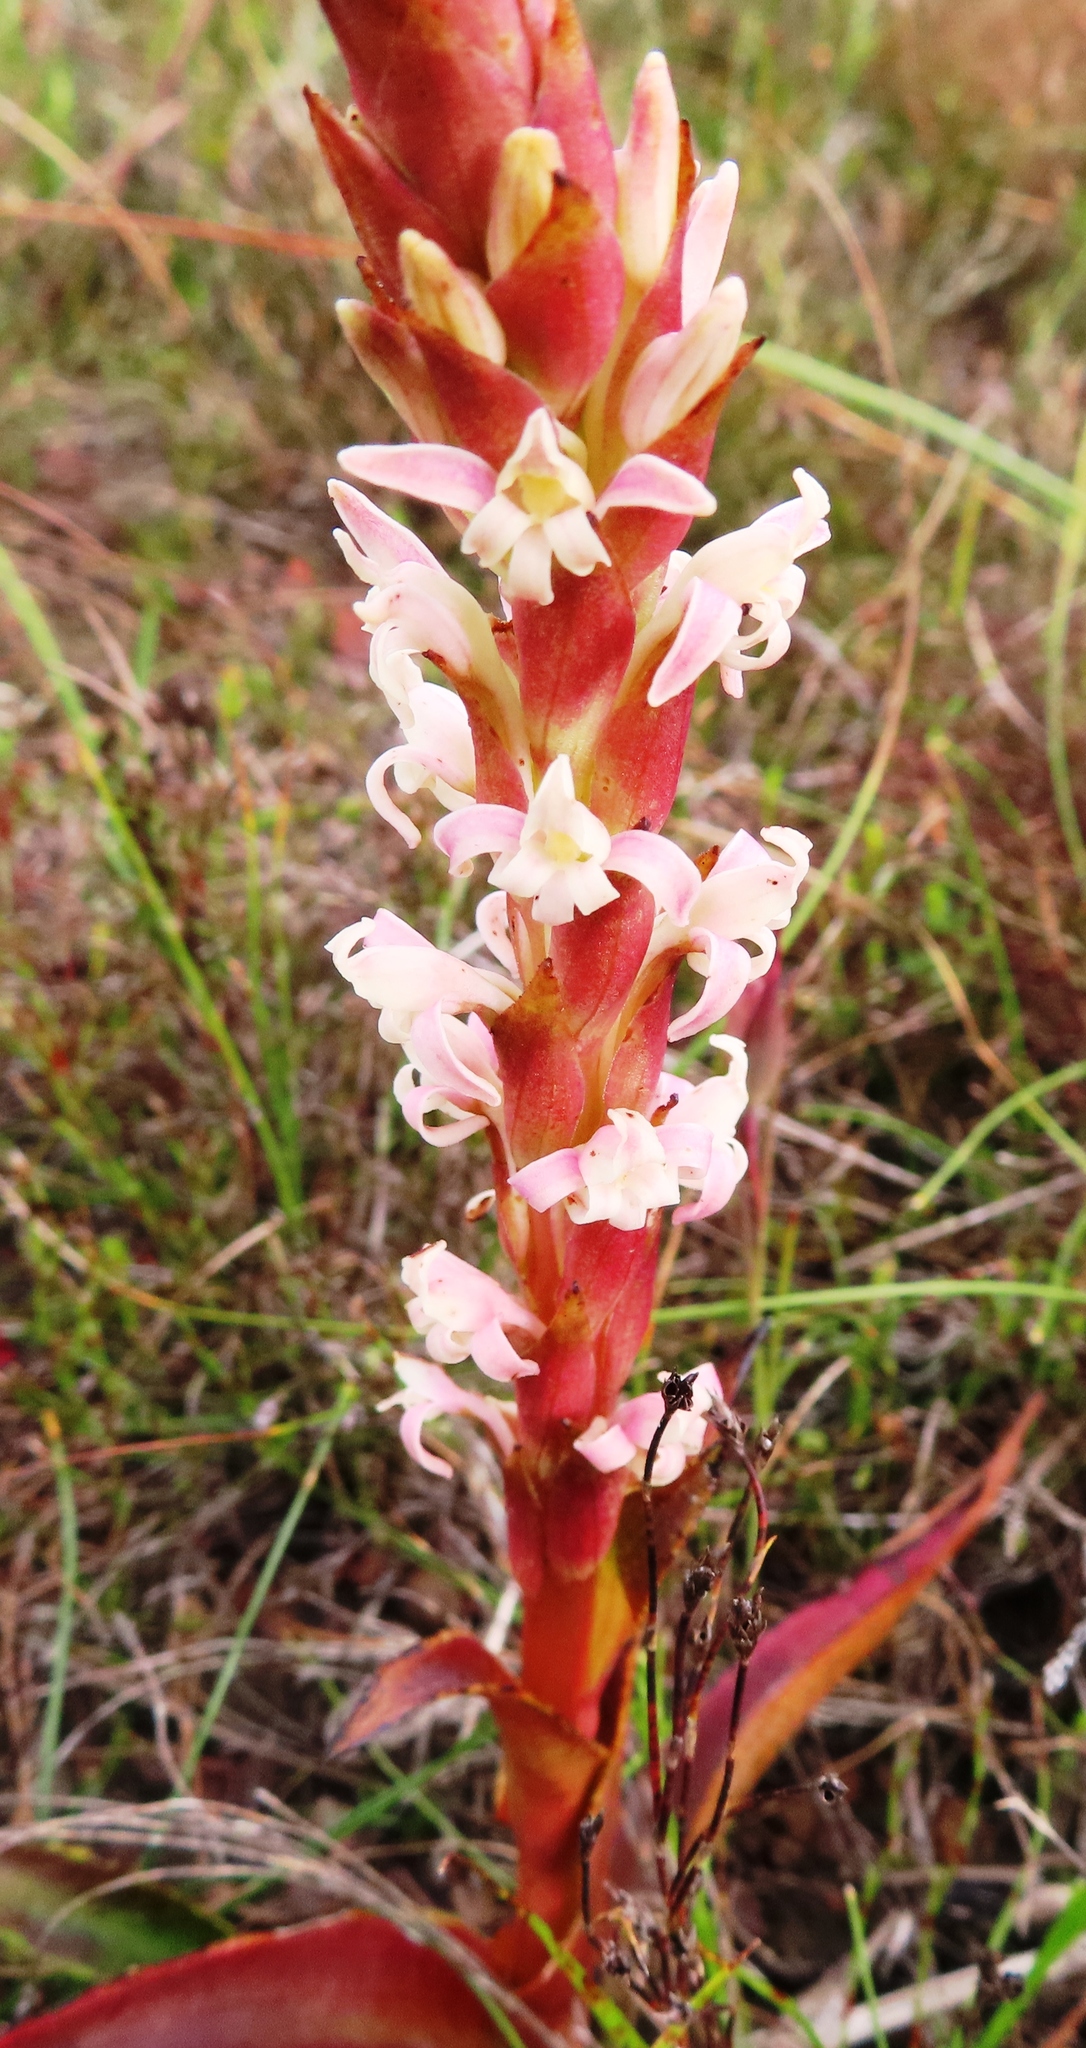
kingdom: Plantae
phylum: Tracheophyta
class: Liliopsida
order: Asparagales
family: Orchidaceae
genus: Satyrium
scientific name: Satyrium stenopetalum
